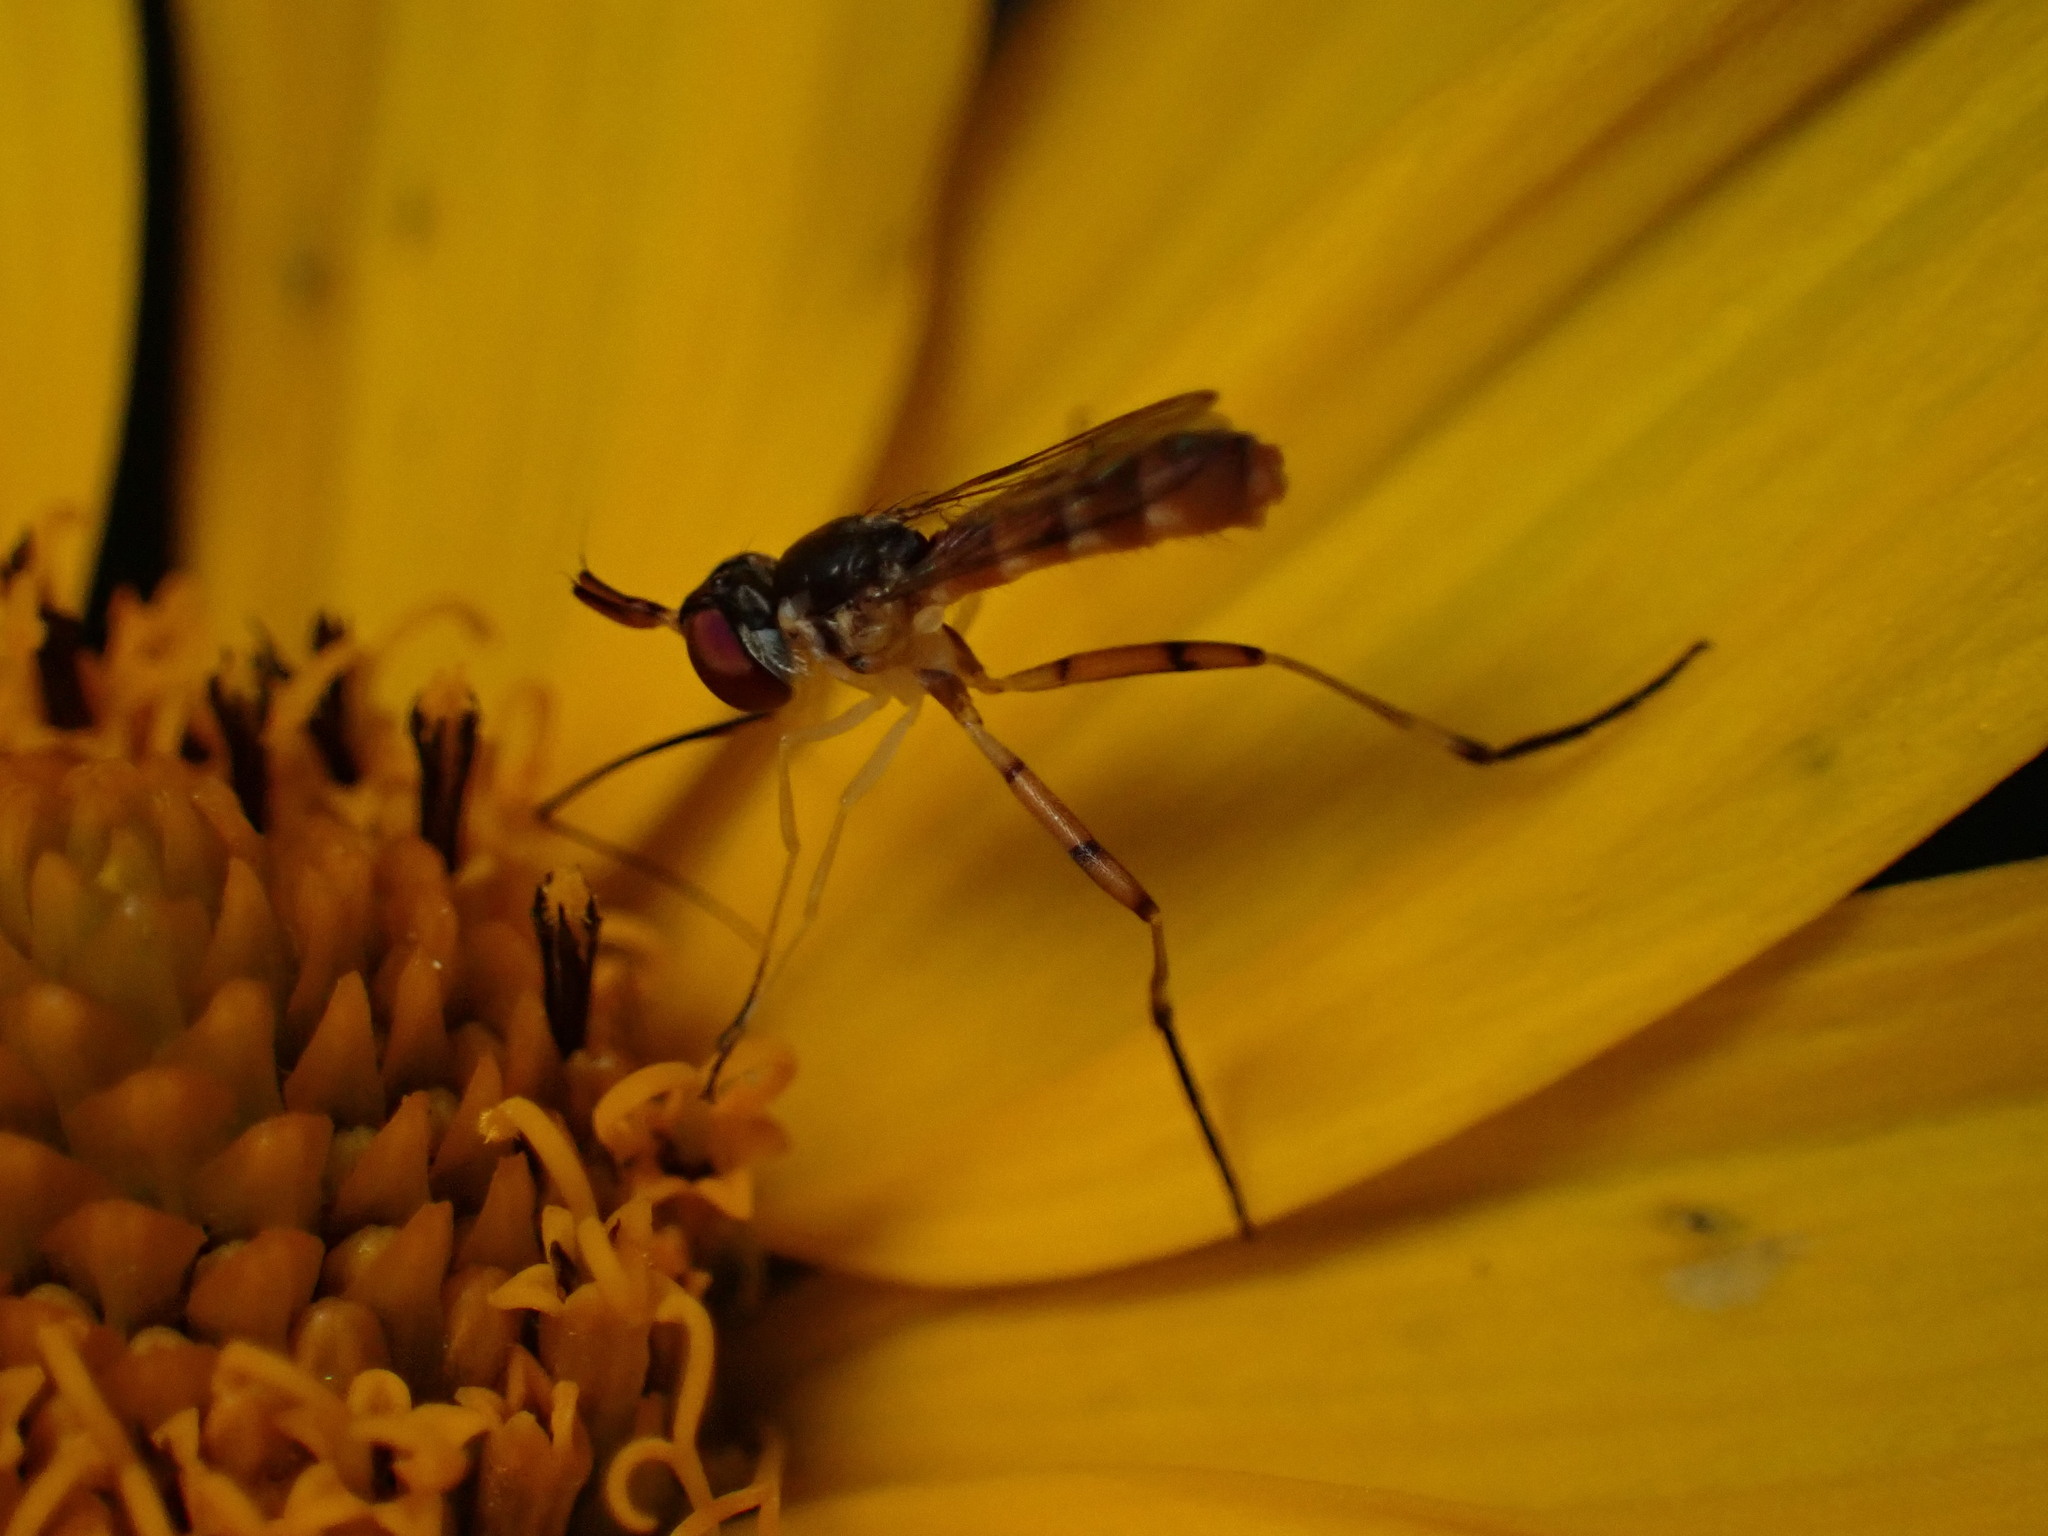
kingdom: Animalia
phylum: Arthropoda
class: Insecta
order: Diptera
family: Conopidae
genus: Stylogaster
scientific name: Stylogaster neglecta
